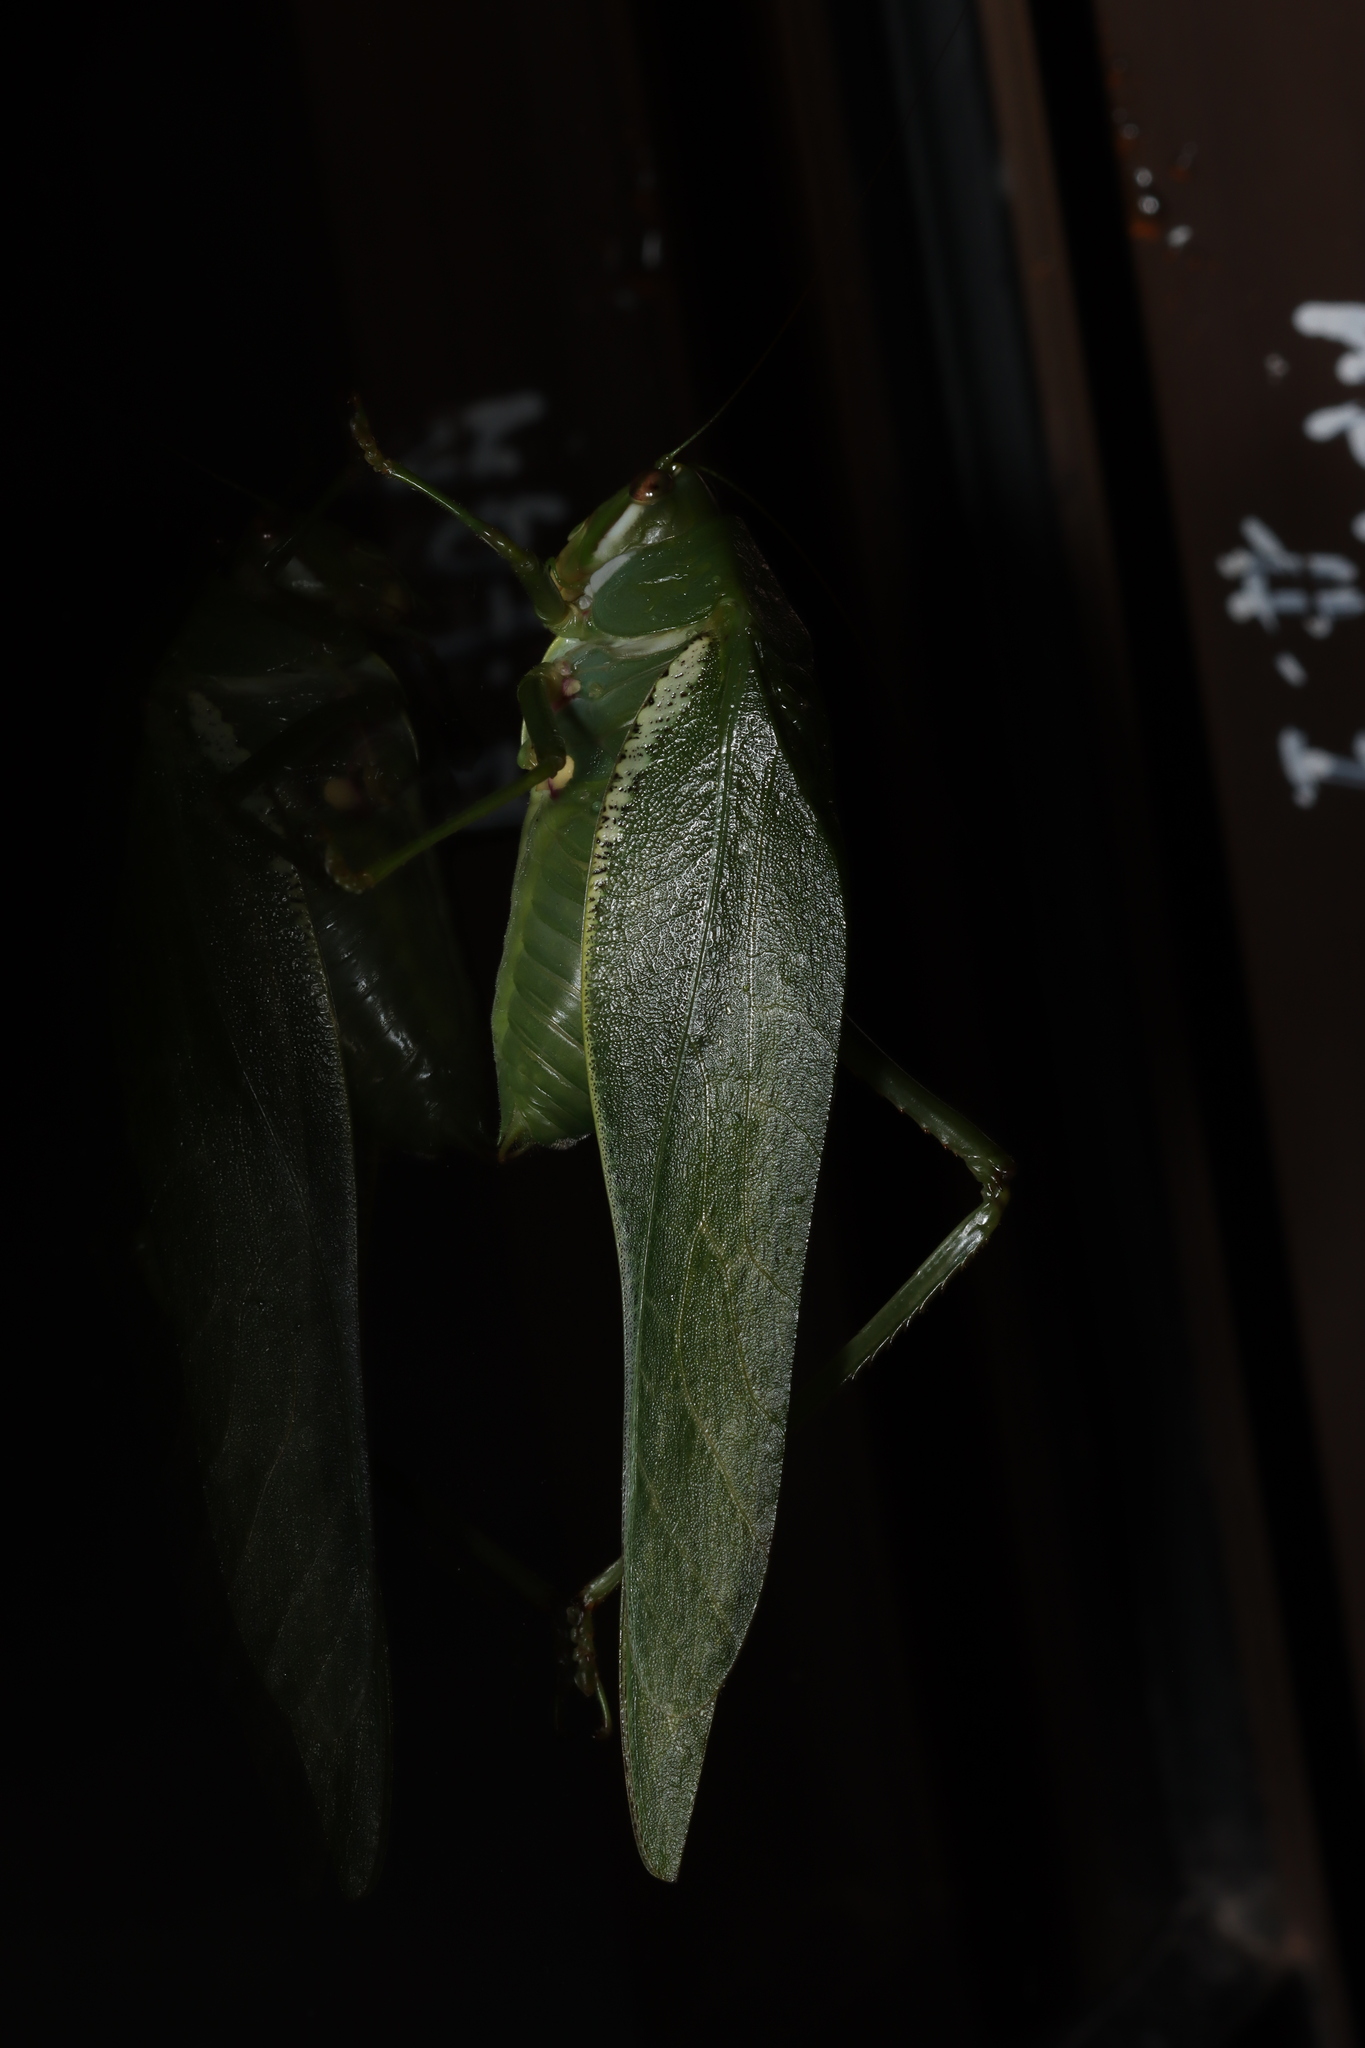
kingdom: Animalia
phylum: Arthropoda
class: Insecta
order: Orthoptera
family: Tettigoniidae
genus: Philophyllia
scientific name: Philophyllia guttulata
